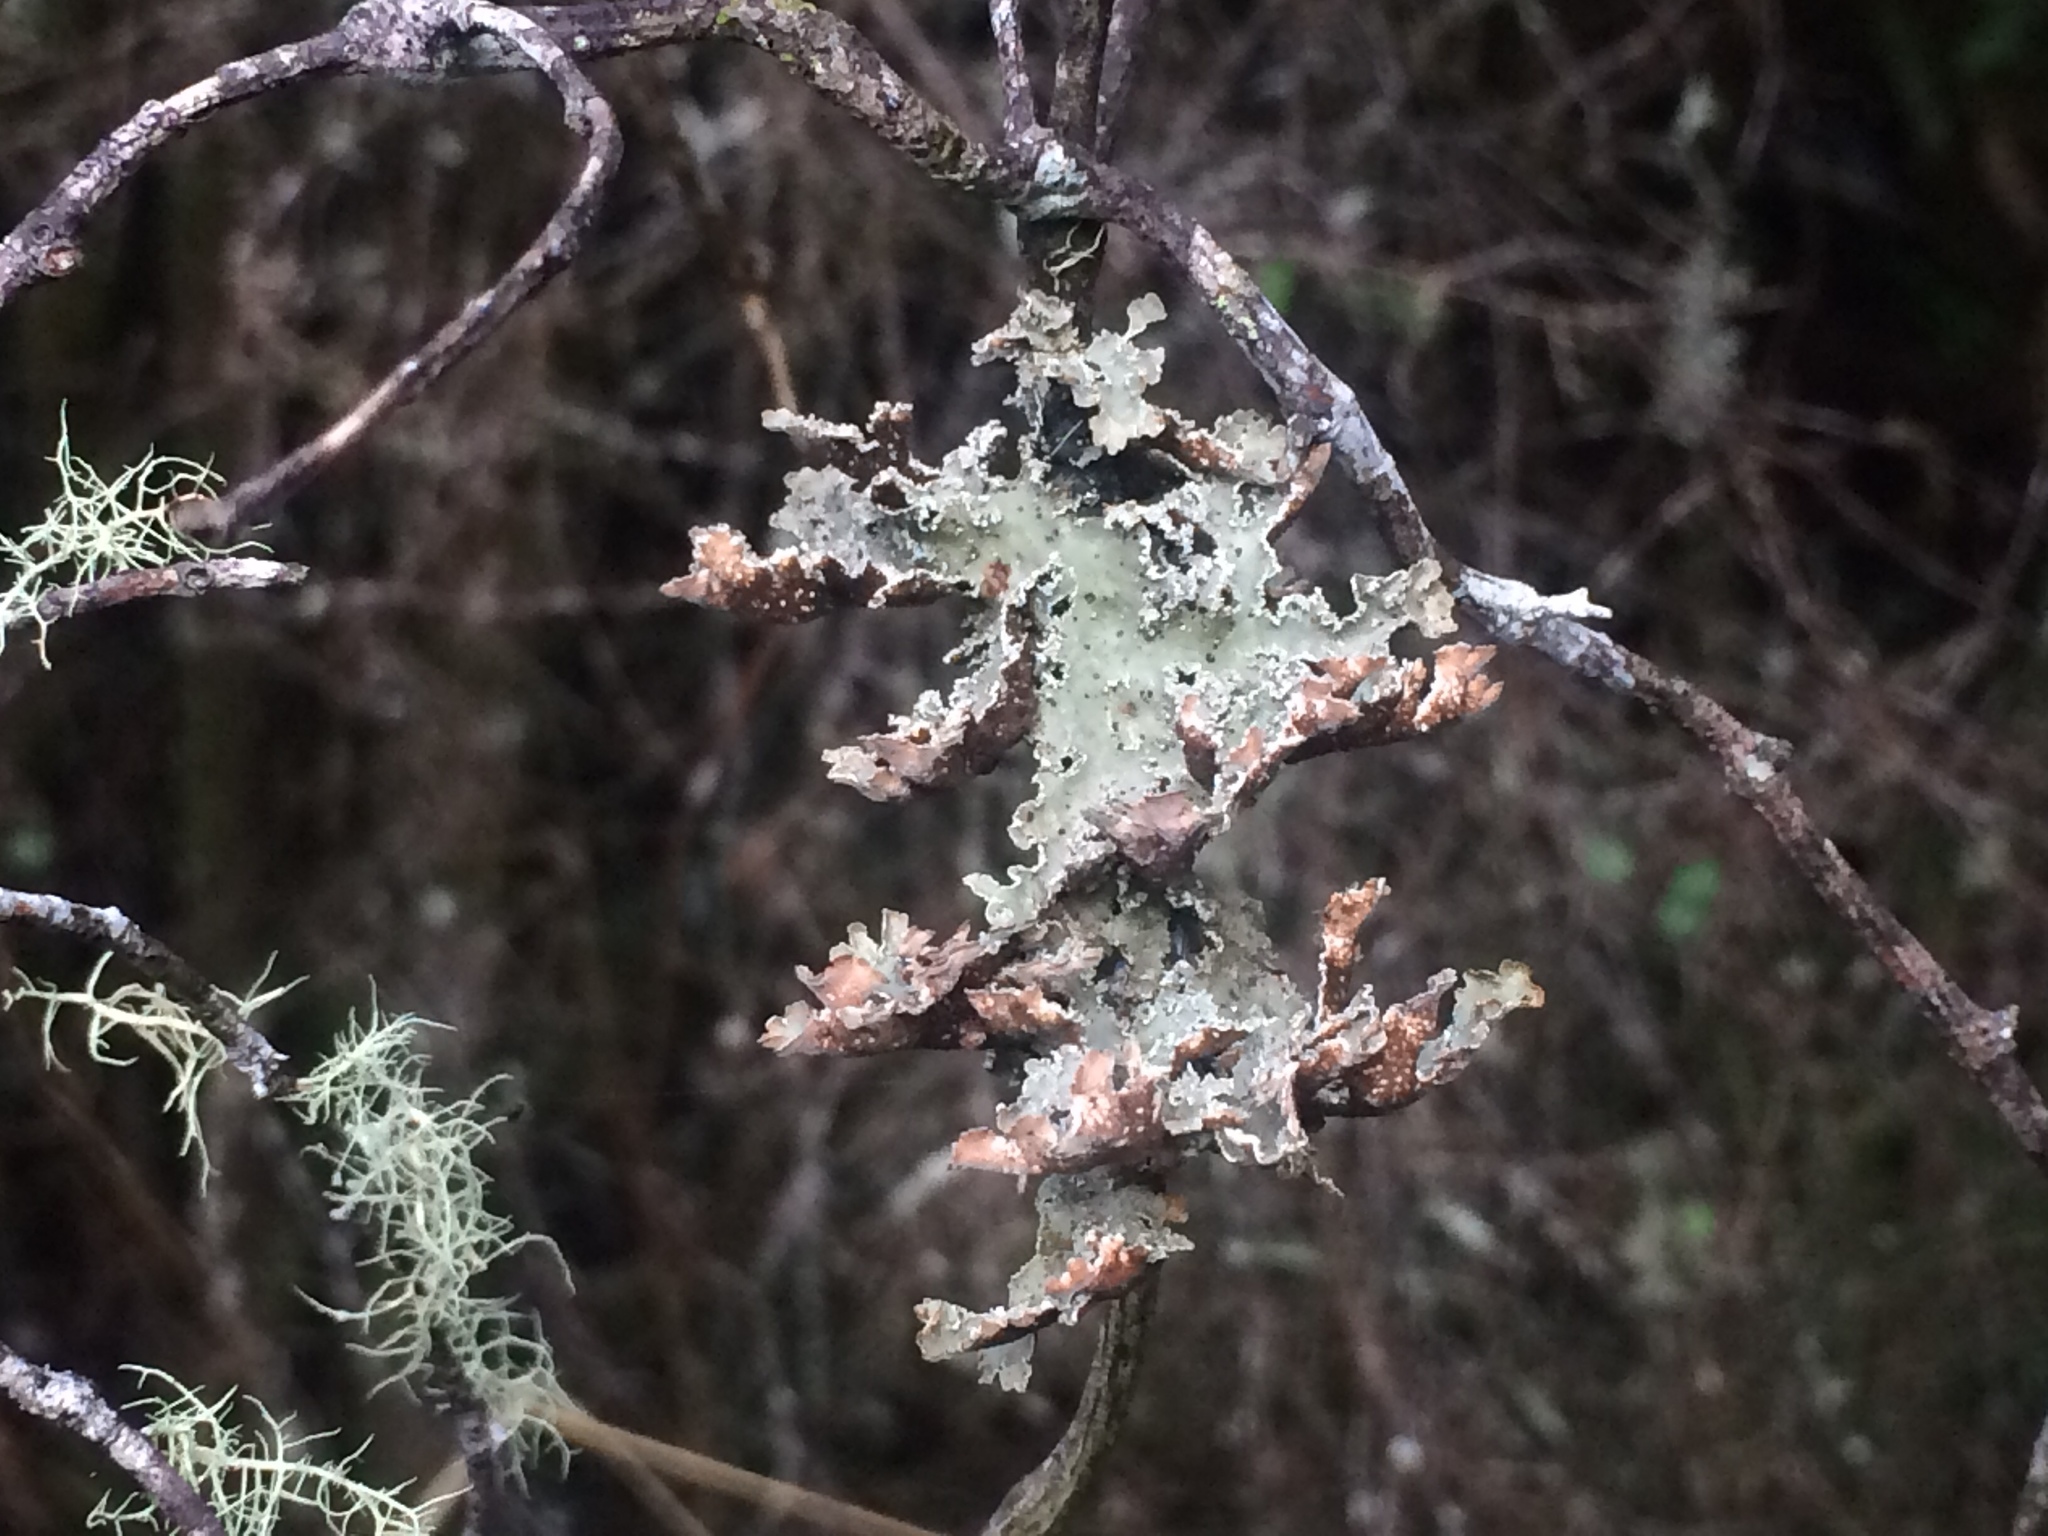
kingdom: Fungi
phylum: Ascomycota
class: Lecanoromycetes
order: Peltigerales
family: Lobariaceae
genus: Pseudocyphellaria
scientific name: Pseudocyphellaria granulata
